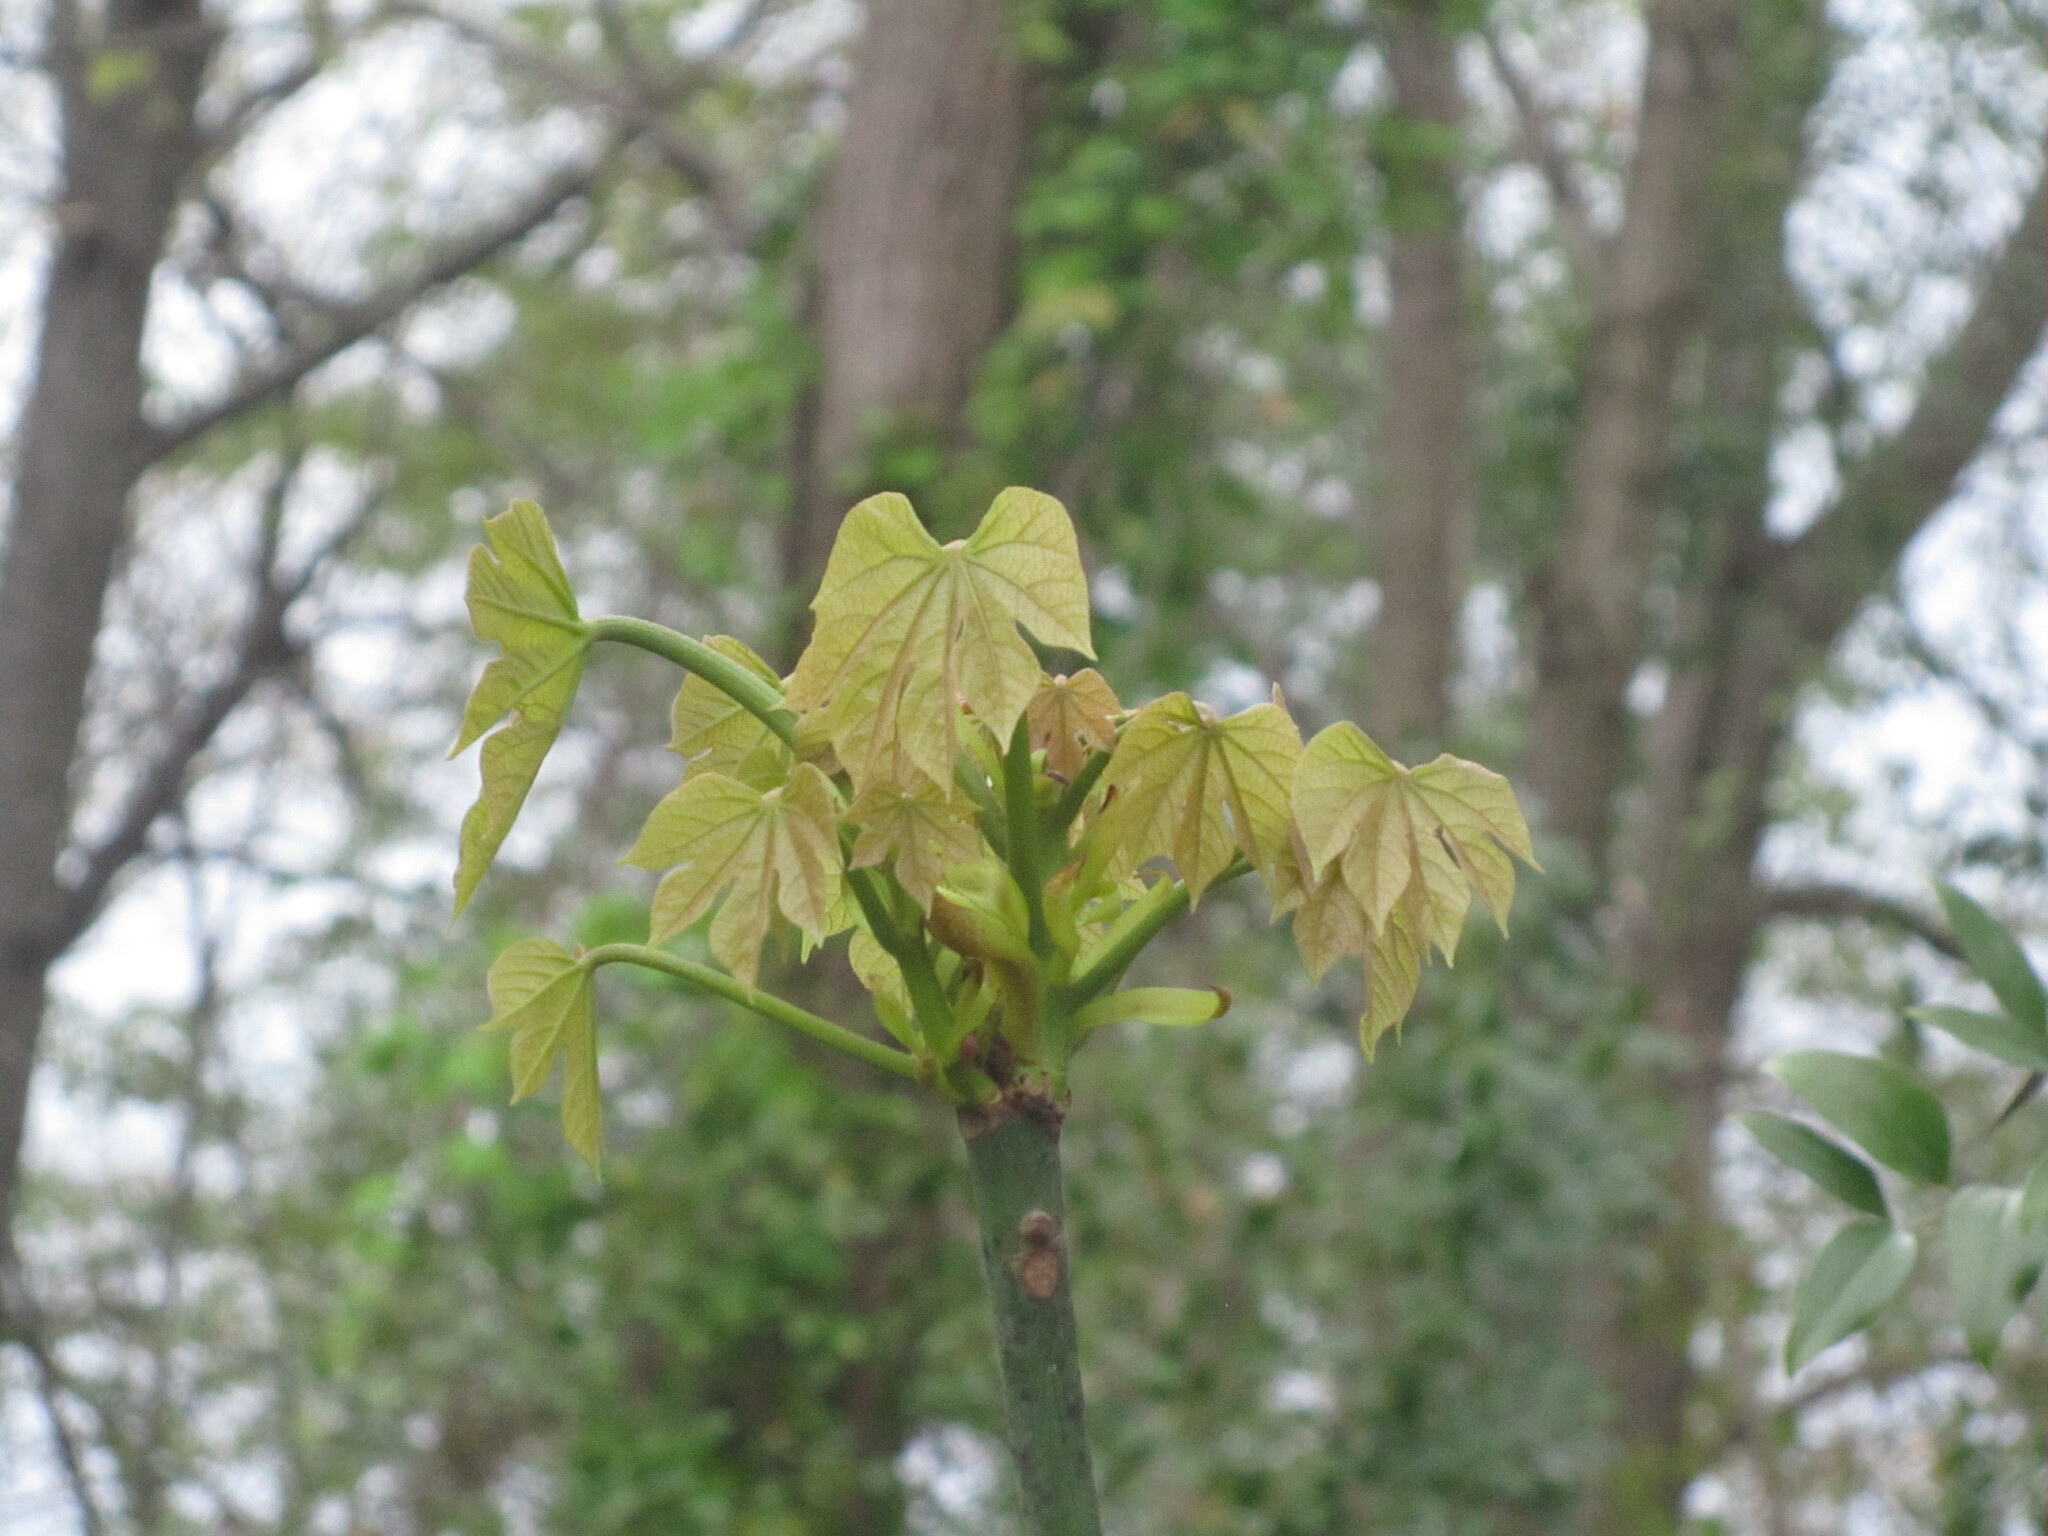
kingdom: Plantae
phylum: Tracheophyta
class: Magnoliopsida
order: Malvales
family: Malvaceae
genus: Firmiana
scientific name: Firmiana simplex
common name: Chinese parasoltree
